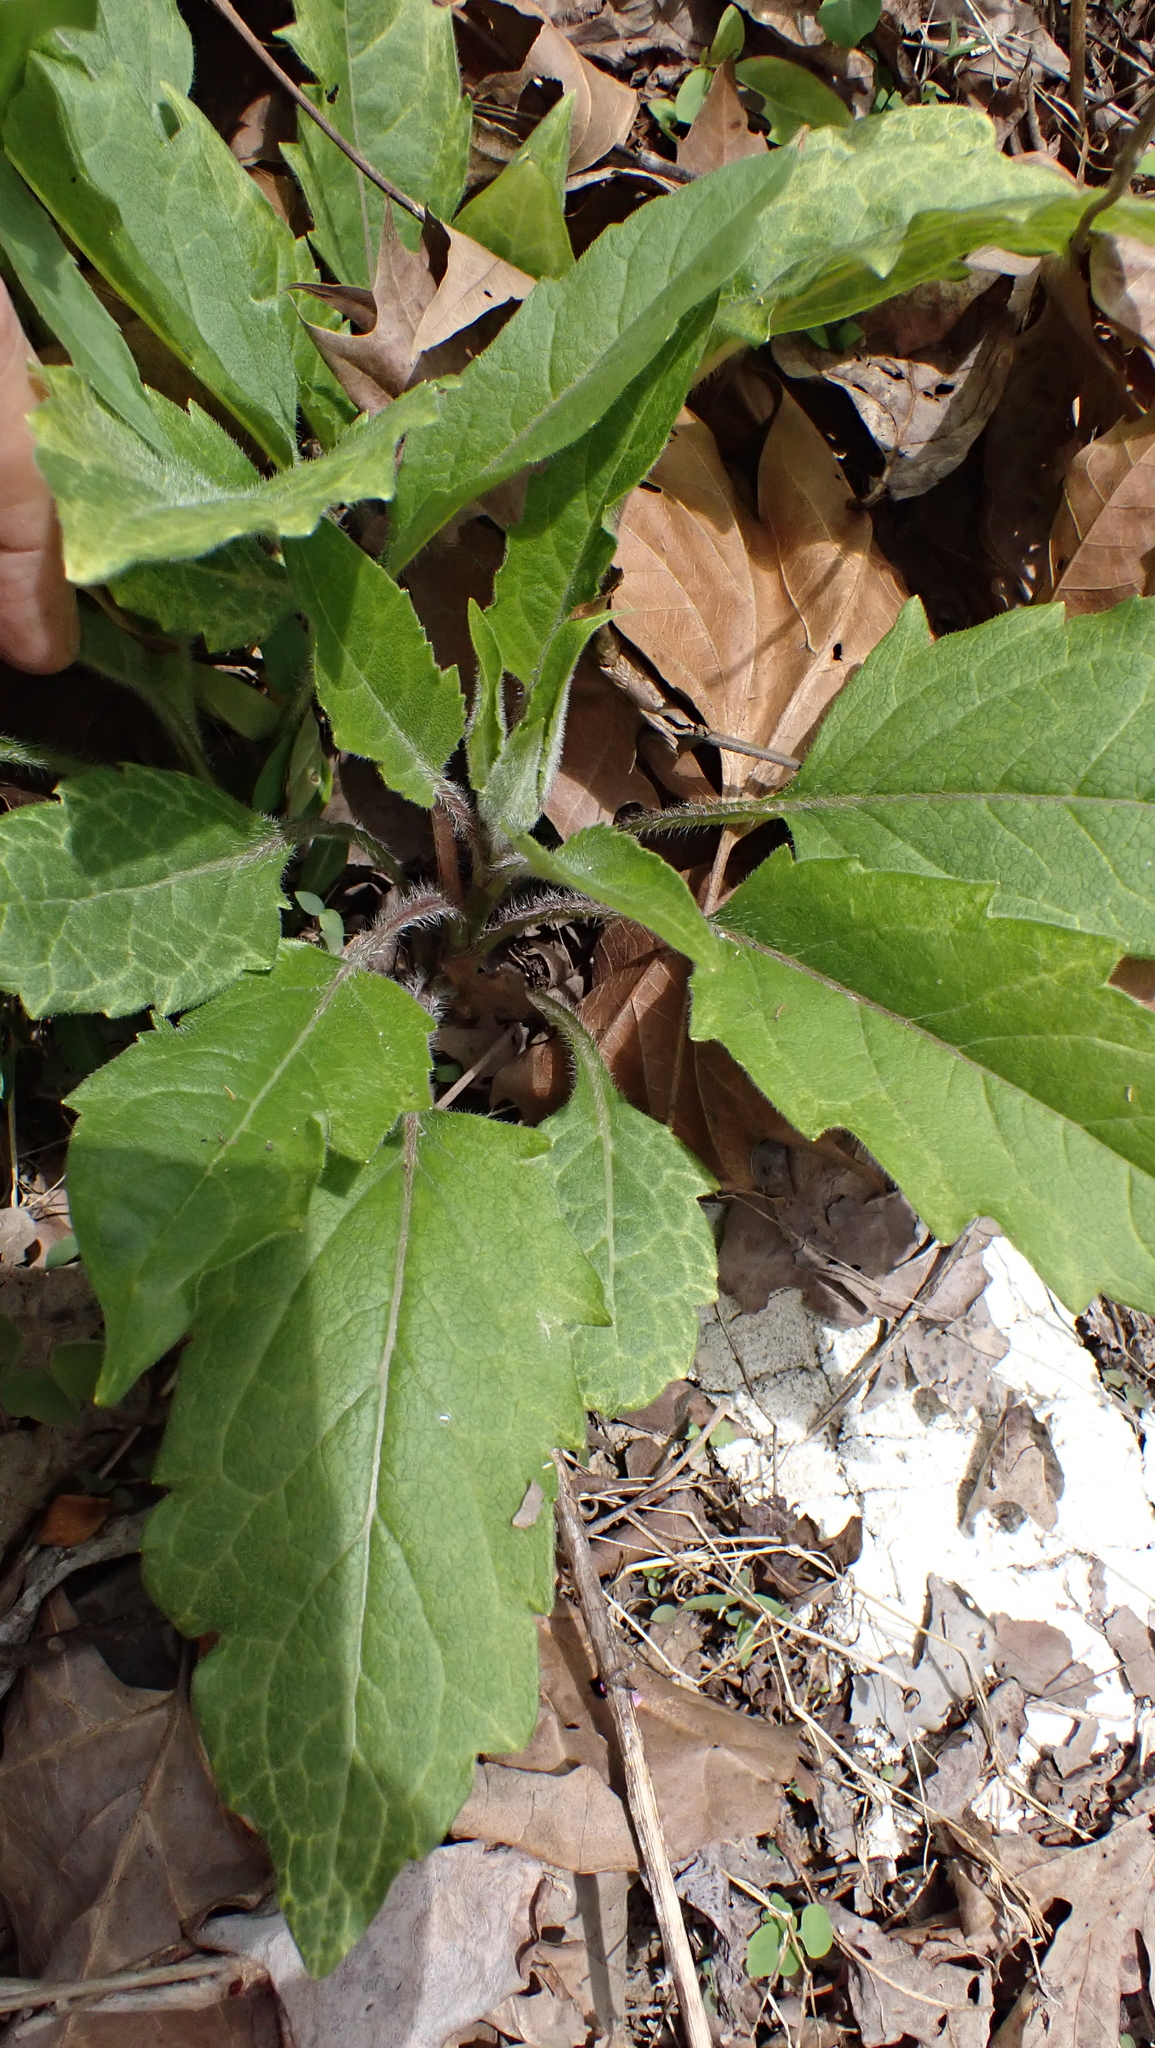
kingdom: Plantae
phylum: Tracheophyta
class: Magnoliopsida
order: Asterales
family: Asteraceae
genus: Silphium
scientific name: Silphium asteriscus
